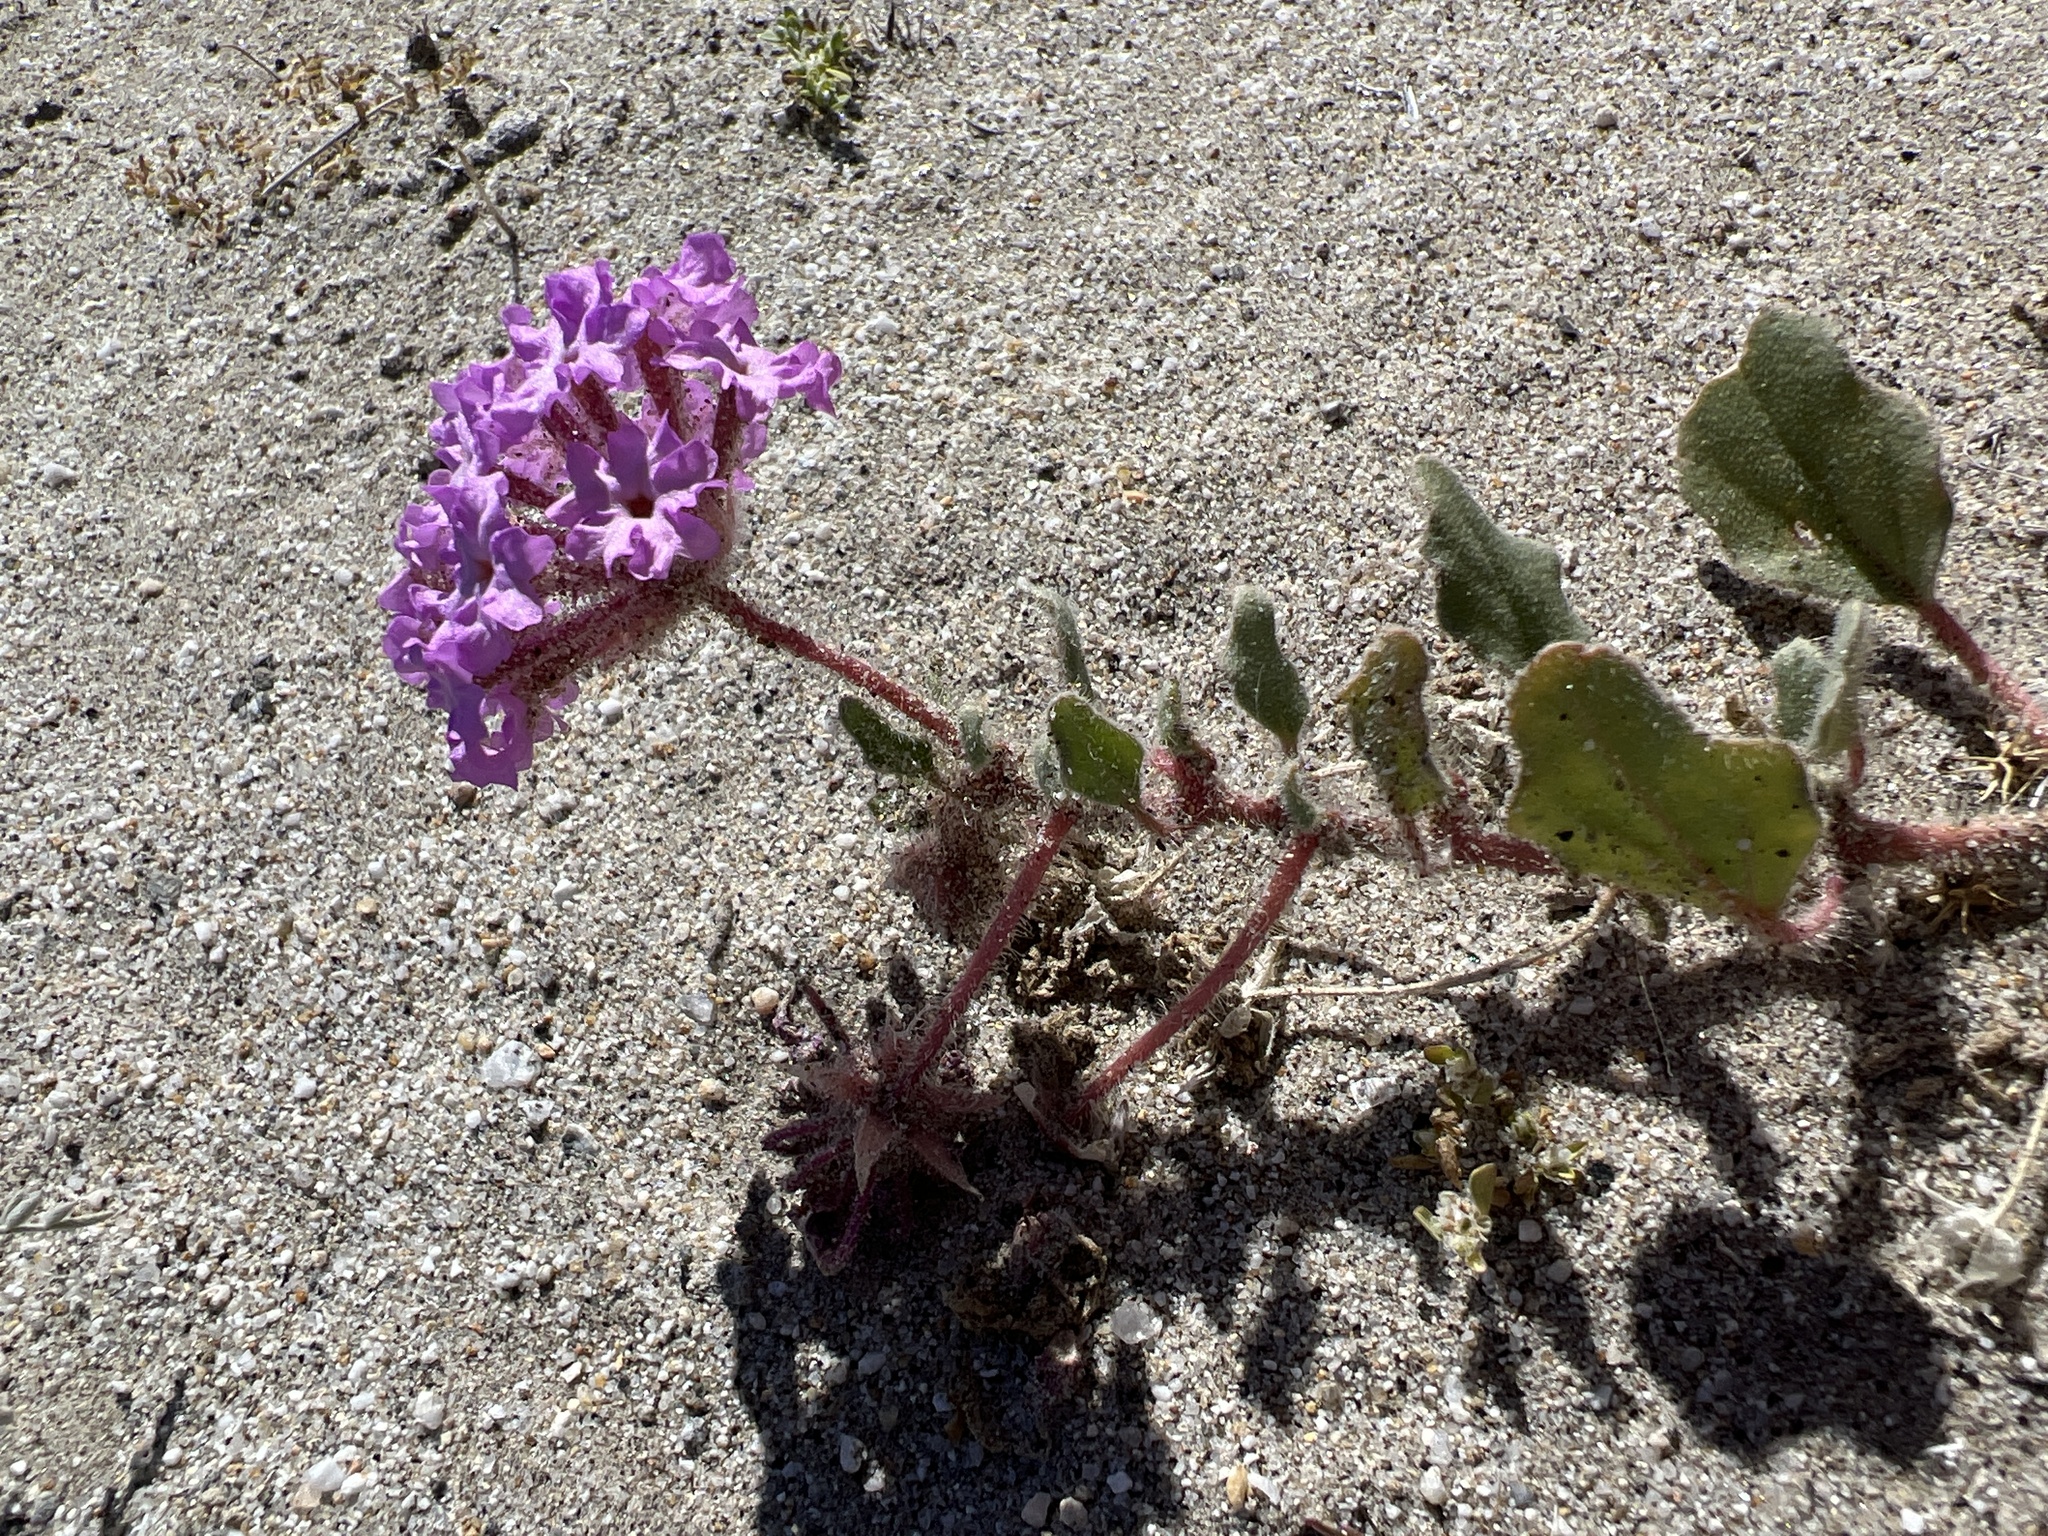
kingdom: Plantae
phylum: Tracheophyta
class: Magnoliopsida
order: Caryophyllales
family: Nyctaginaceae
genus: Abronia
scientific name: Abronia villosa
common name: Desert sand-verbena
